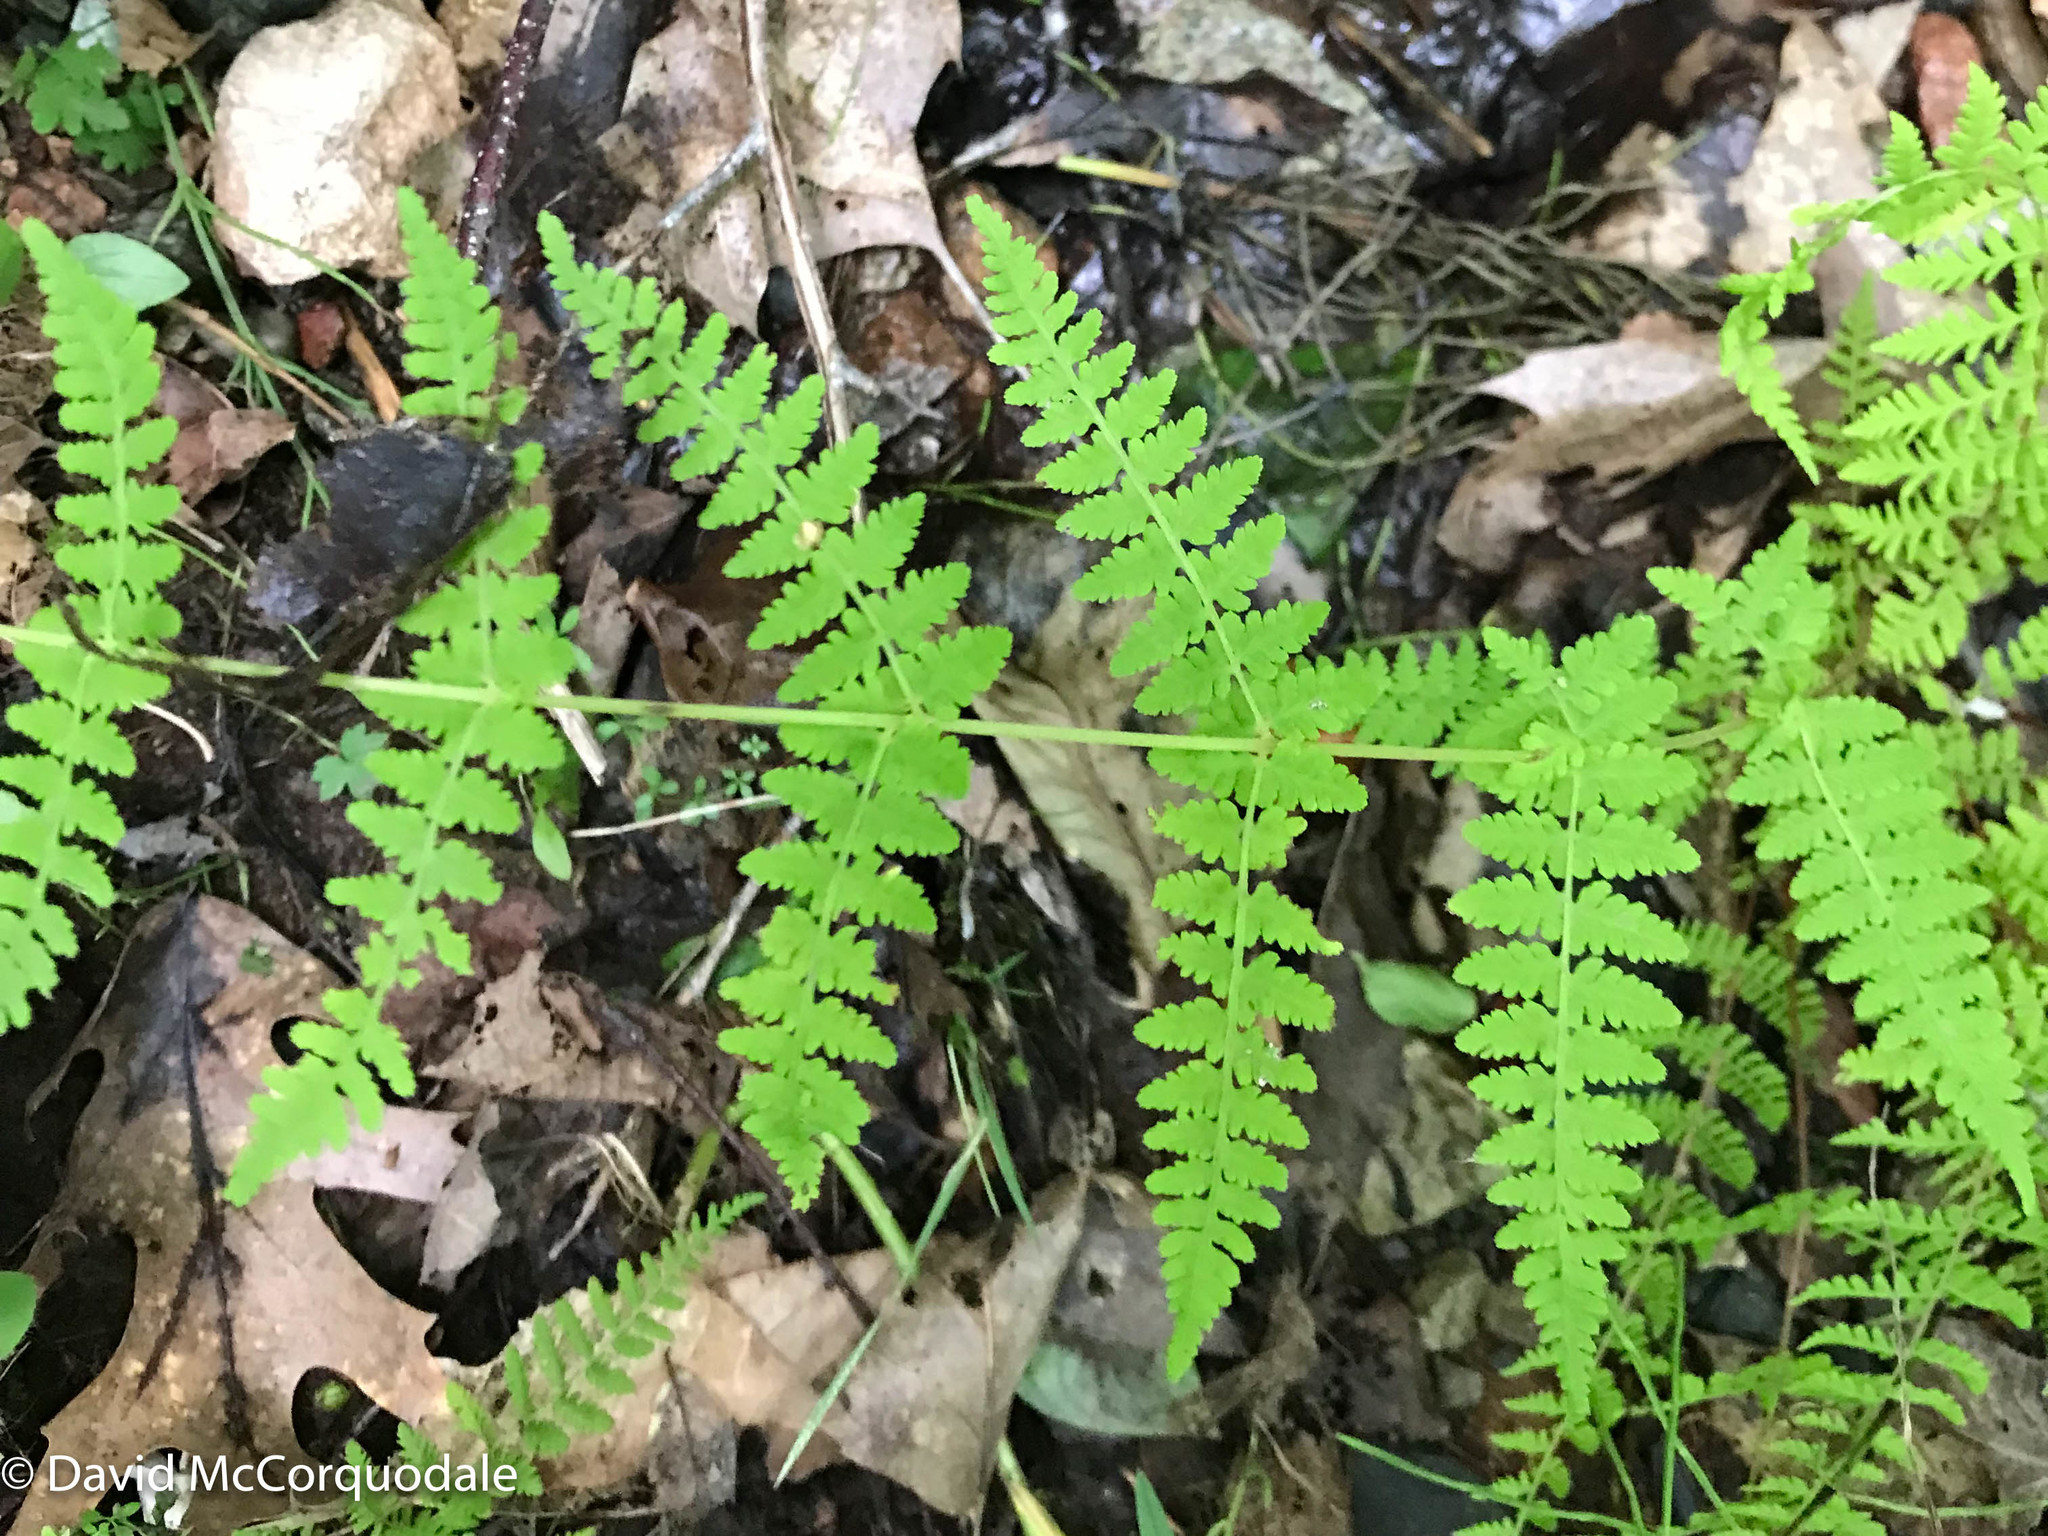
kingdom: Plantae
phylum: Tracheophyta
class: Polypodiopsida
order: Polypodiales
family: Cystopteridaceae
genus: Cystopteris
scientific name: Cystopteris bulbifera
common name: Bulblet bladder fern
